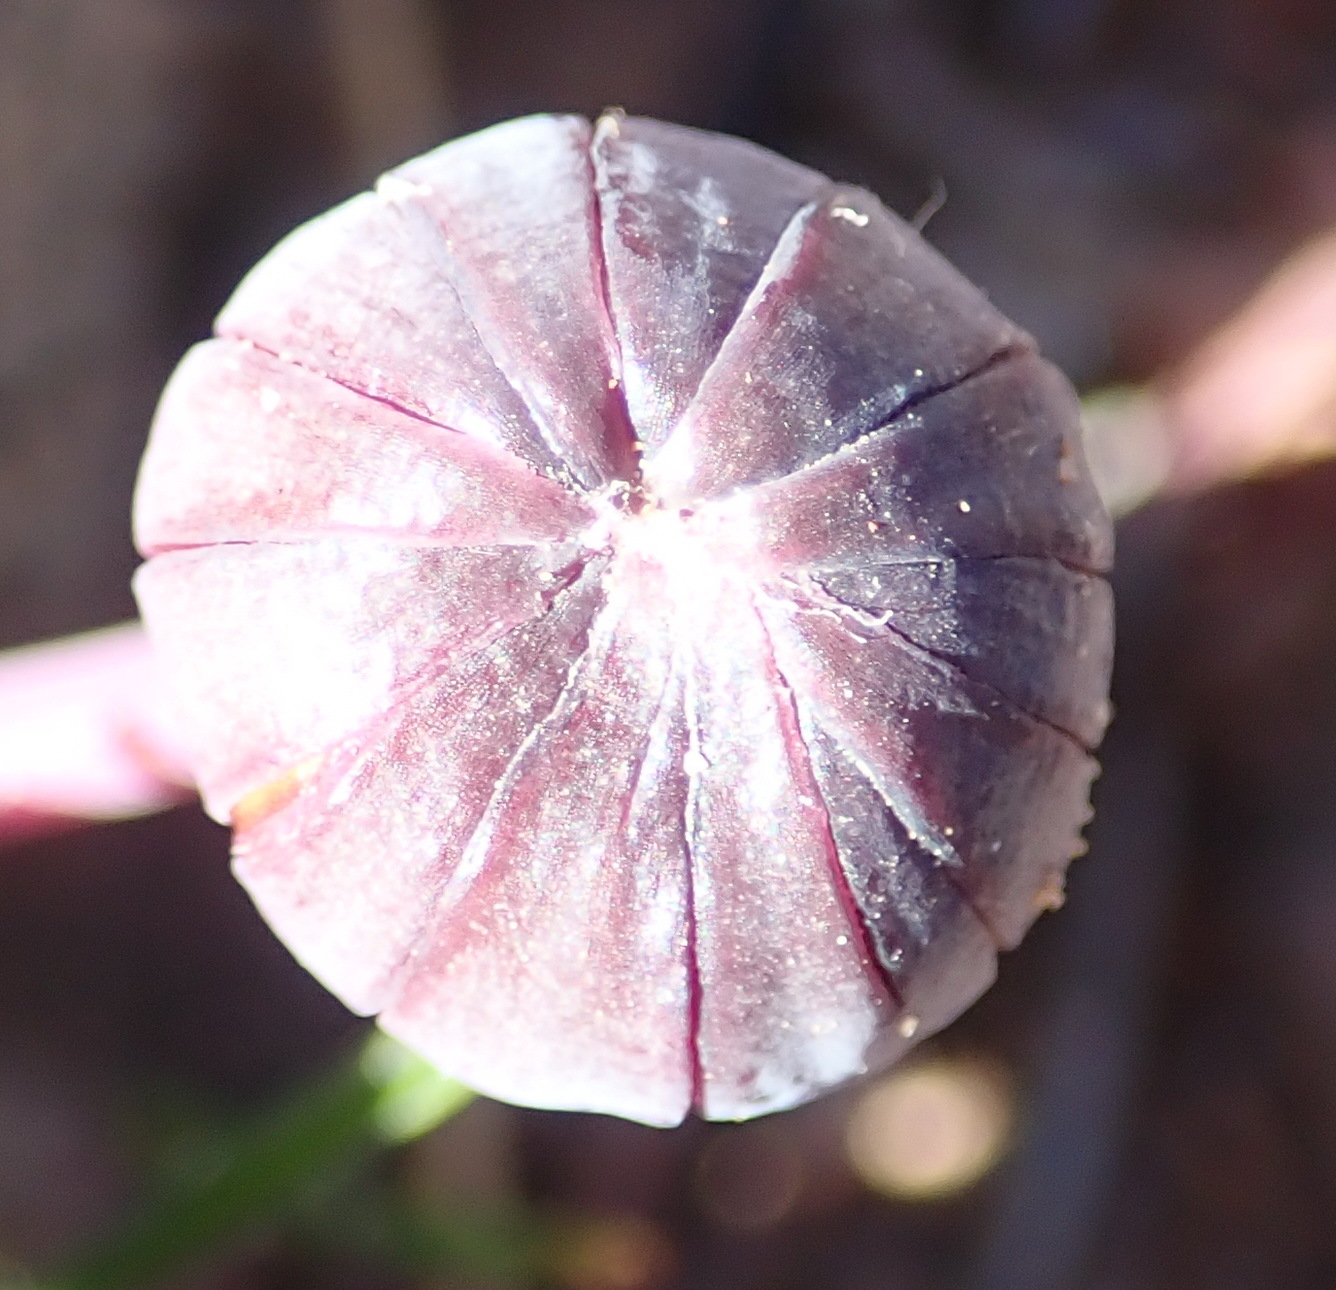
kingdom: Plantae
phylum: Tracheophyta
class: Magnoliopsida
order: Asterales
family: Asteraceae
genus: Othonna
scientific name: Othonna oleracea
